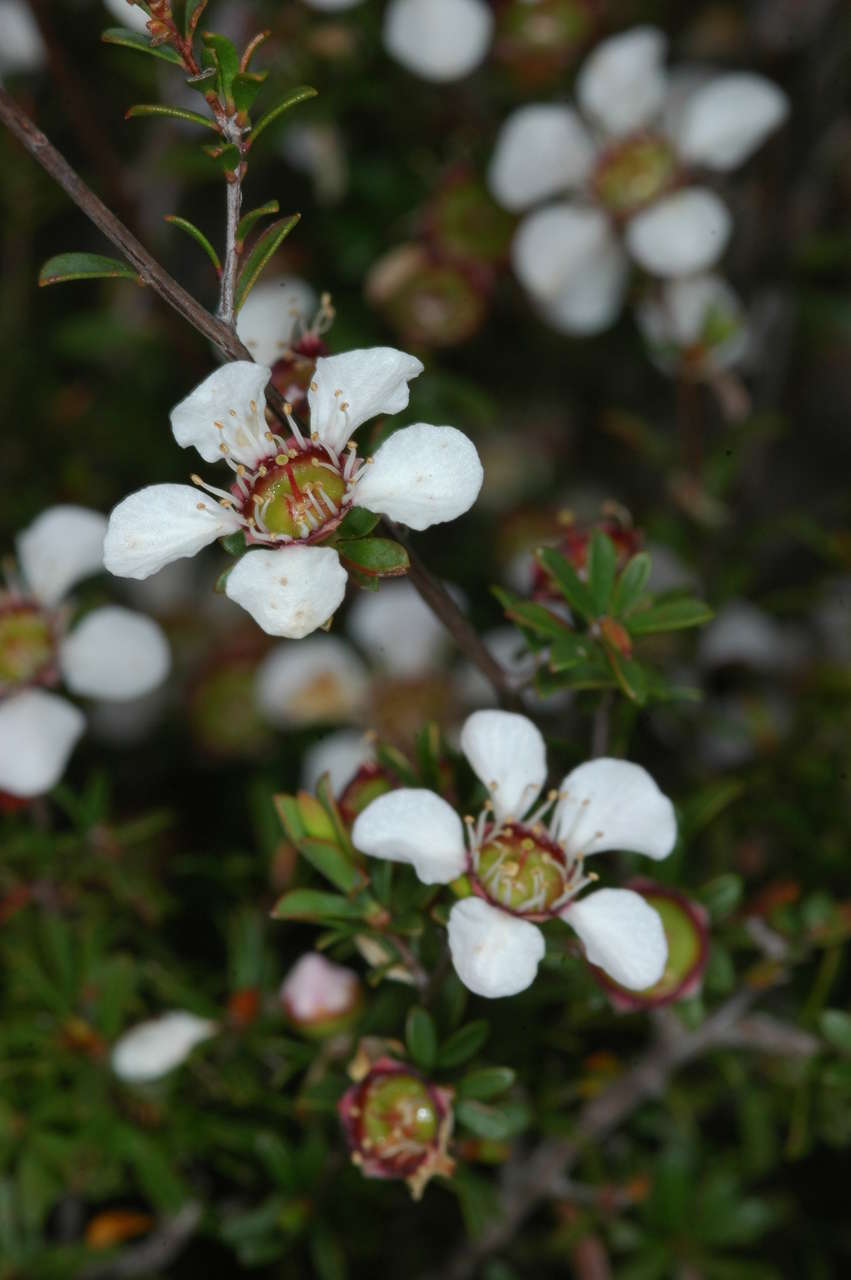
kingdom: Plantae
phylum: Tracheophyta
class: Magnoliopsida
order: Myrtales
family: Myrtaceae
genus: Leptospermum
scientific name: Leptospermum myrsinoides
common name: Heath teatree
